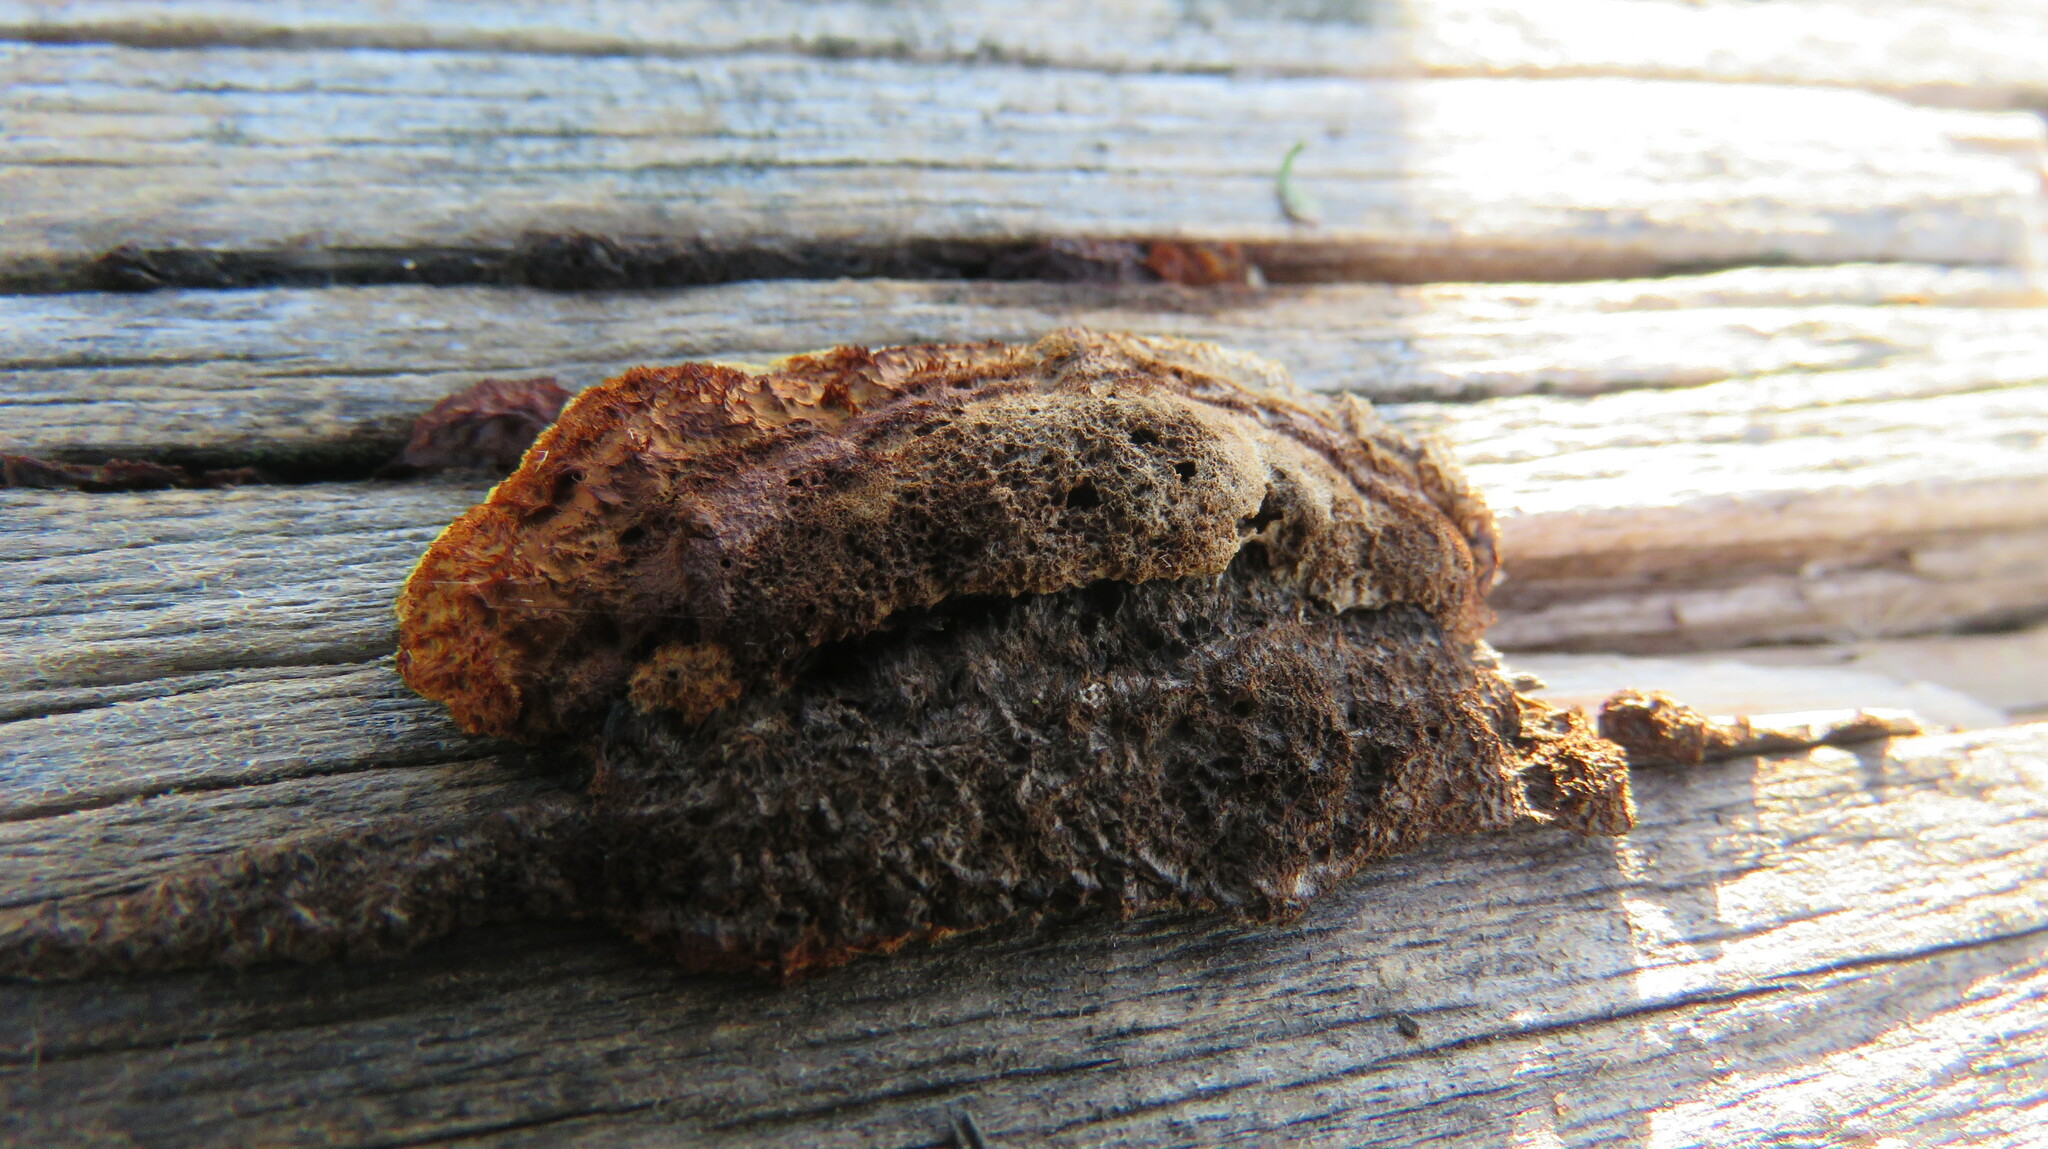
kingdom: Fungi
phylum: Basidiomycota
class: Agaricomycetes
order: Gloeophyllales
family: Gloeophyllaceae
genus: Gloeophyllum
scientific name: Gloeophyllum sepiarium
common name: Conifer mazegill
